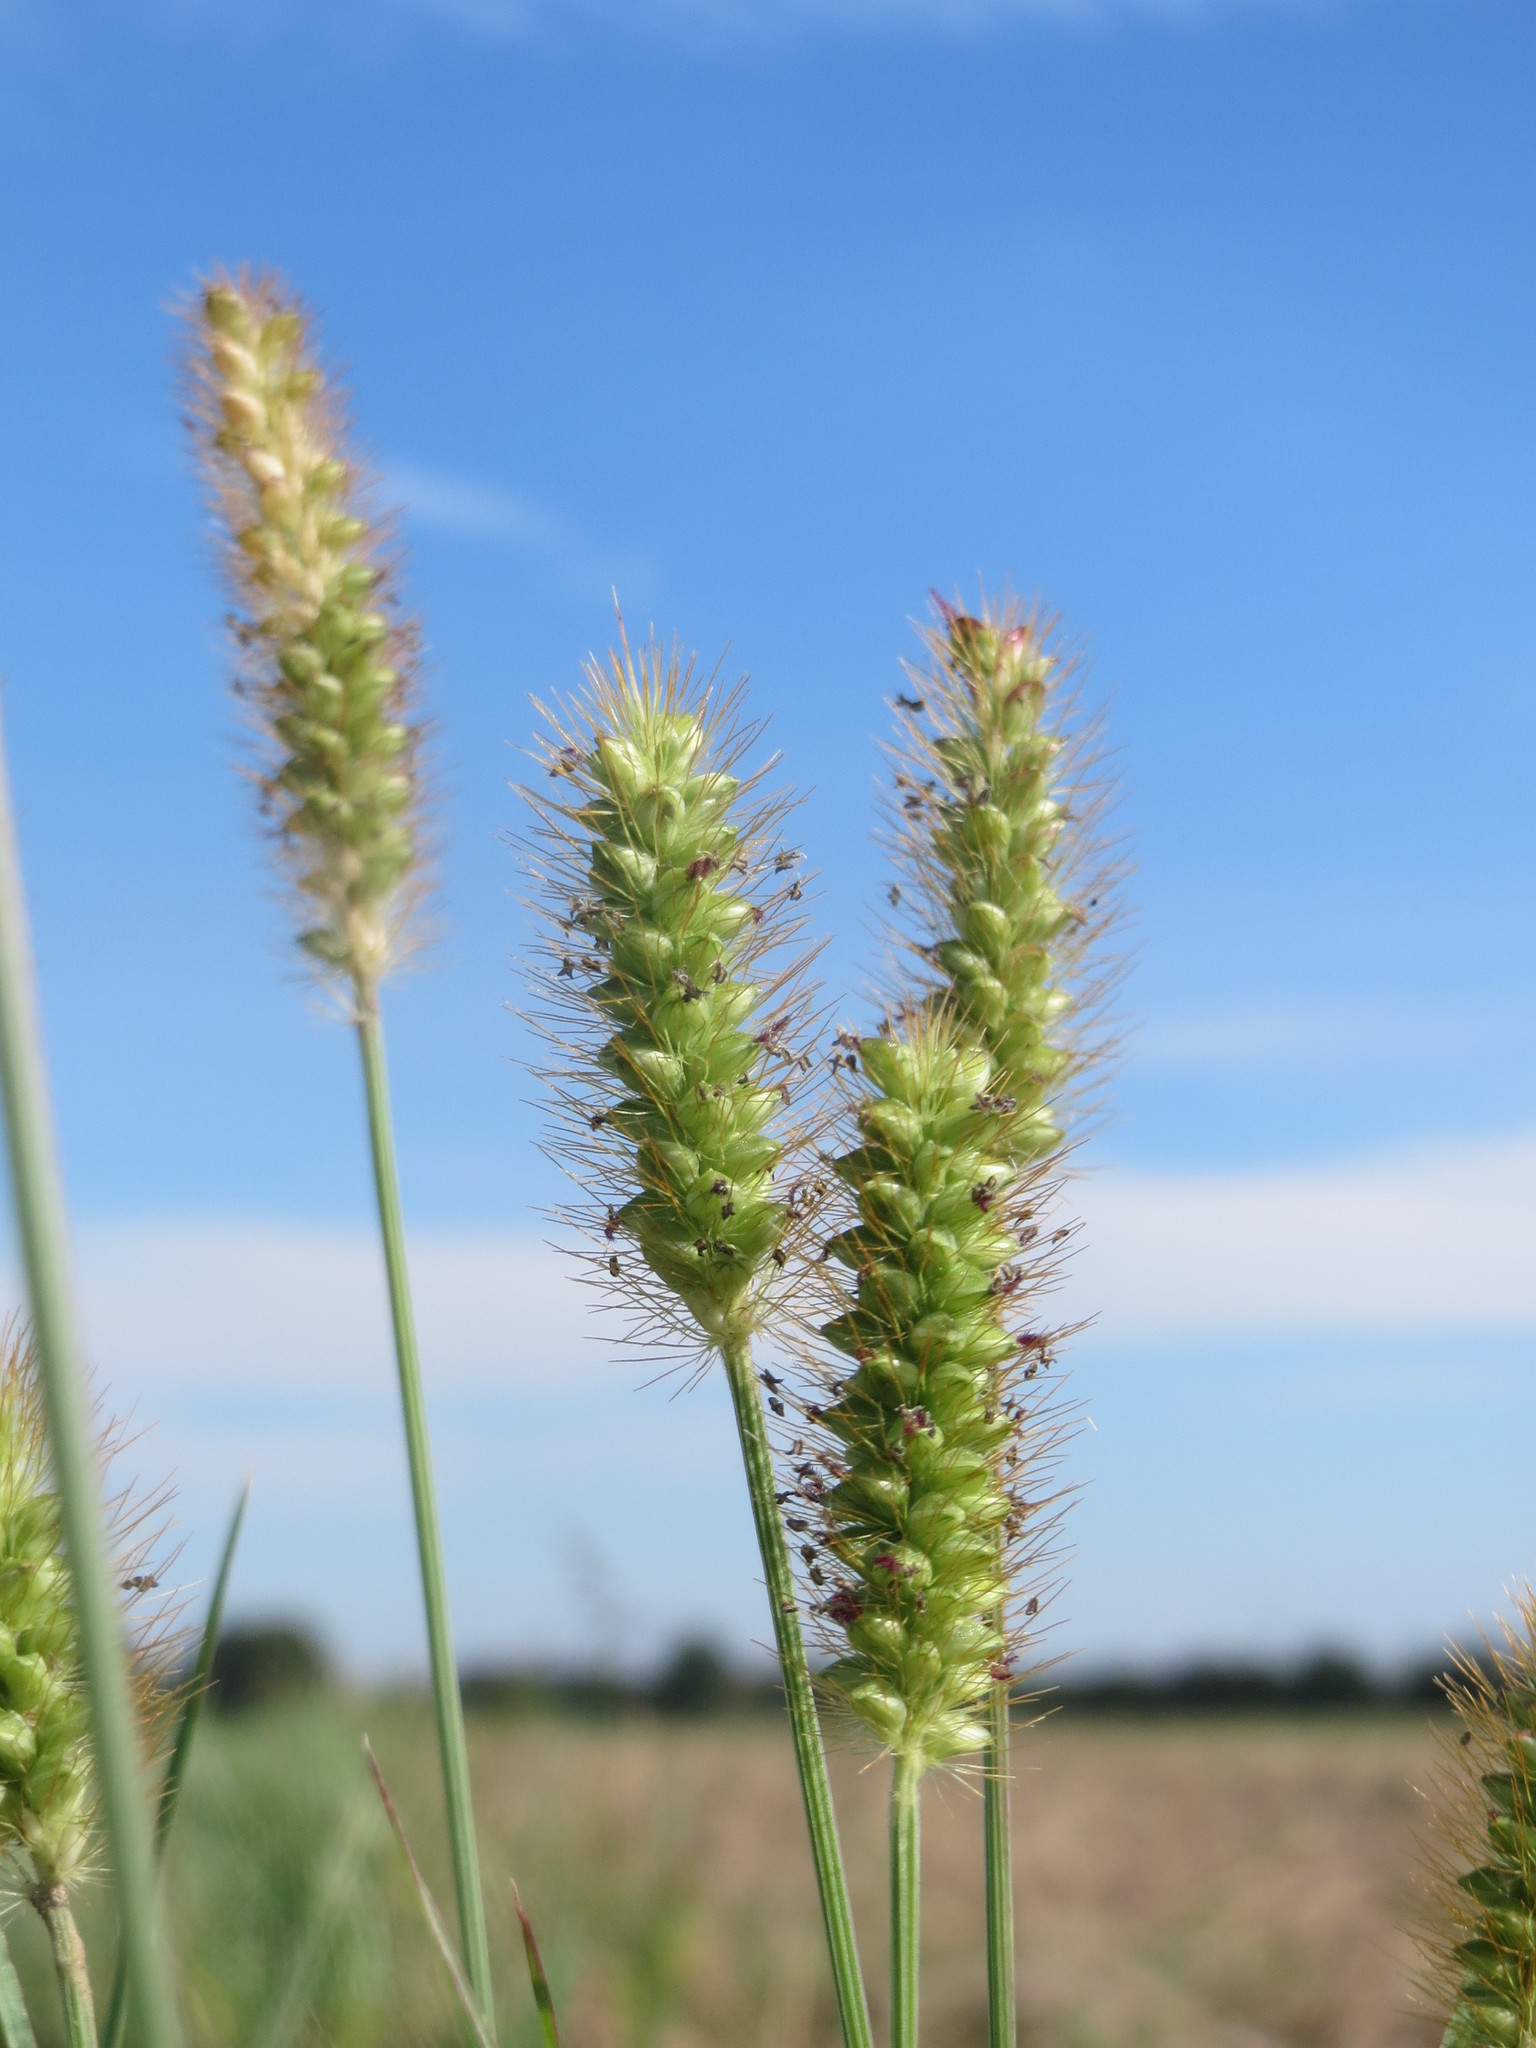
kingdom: Plantae
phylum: Tracheophyta
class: Liliopsida
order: Poales
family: Poaceae
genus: Setaria
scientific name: Setaria pumila
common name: Yellow bristle-grass
